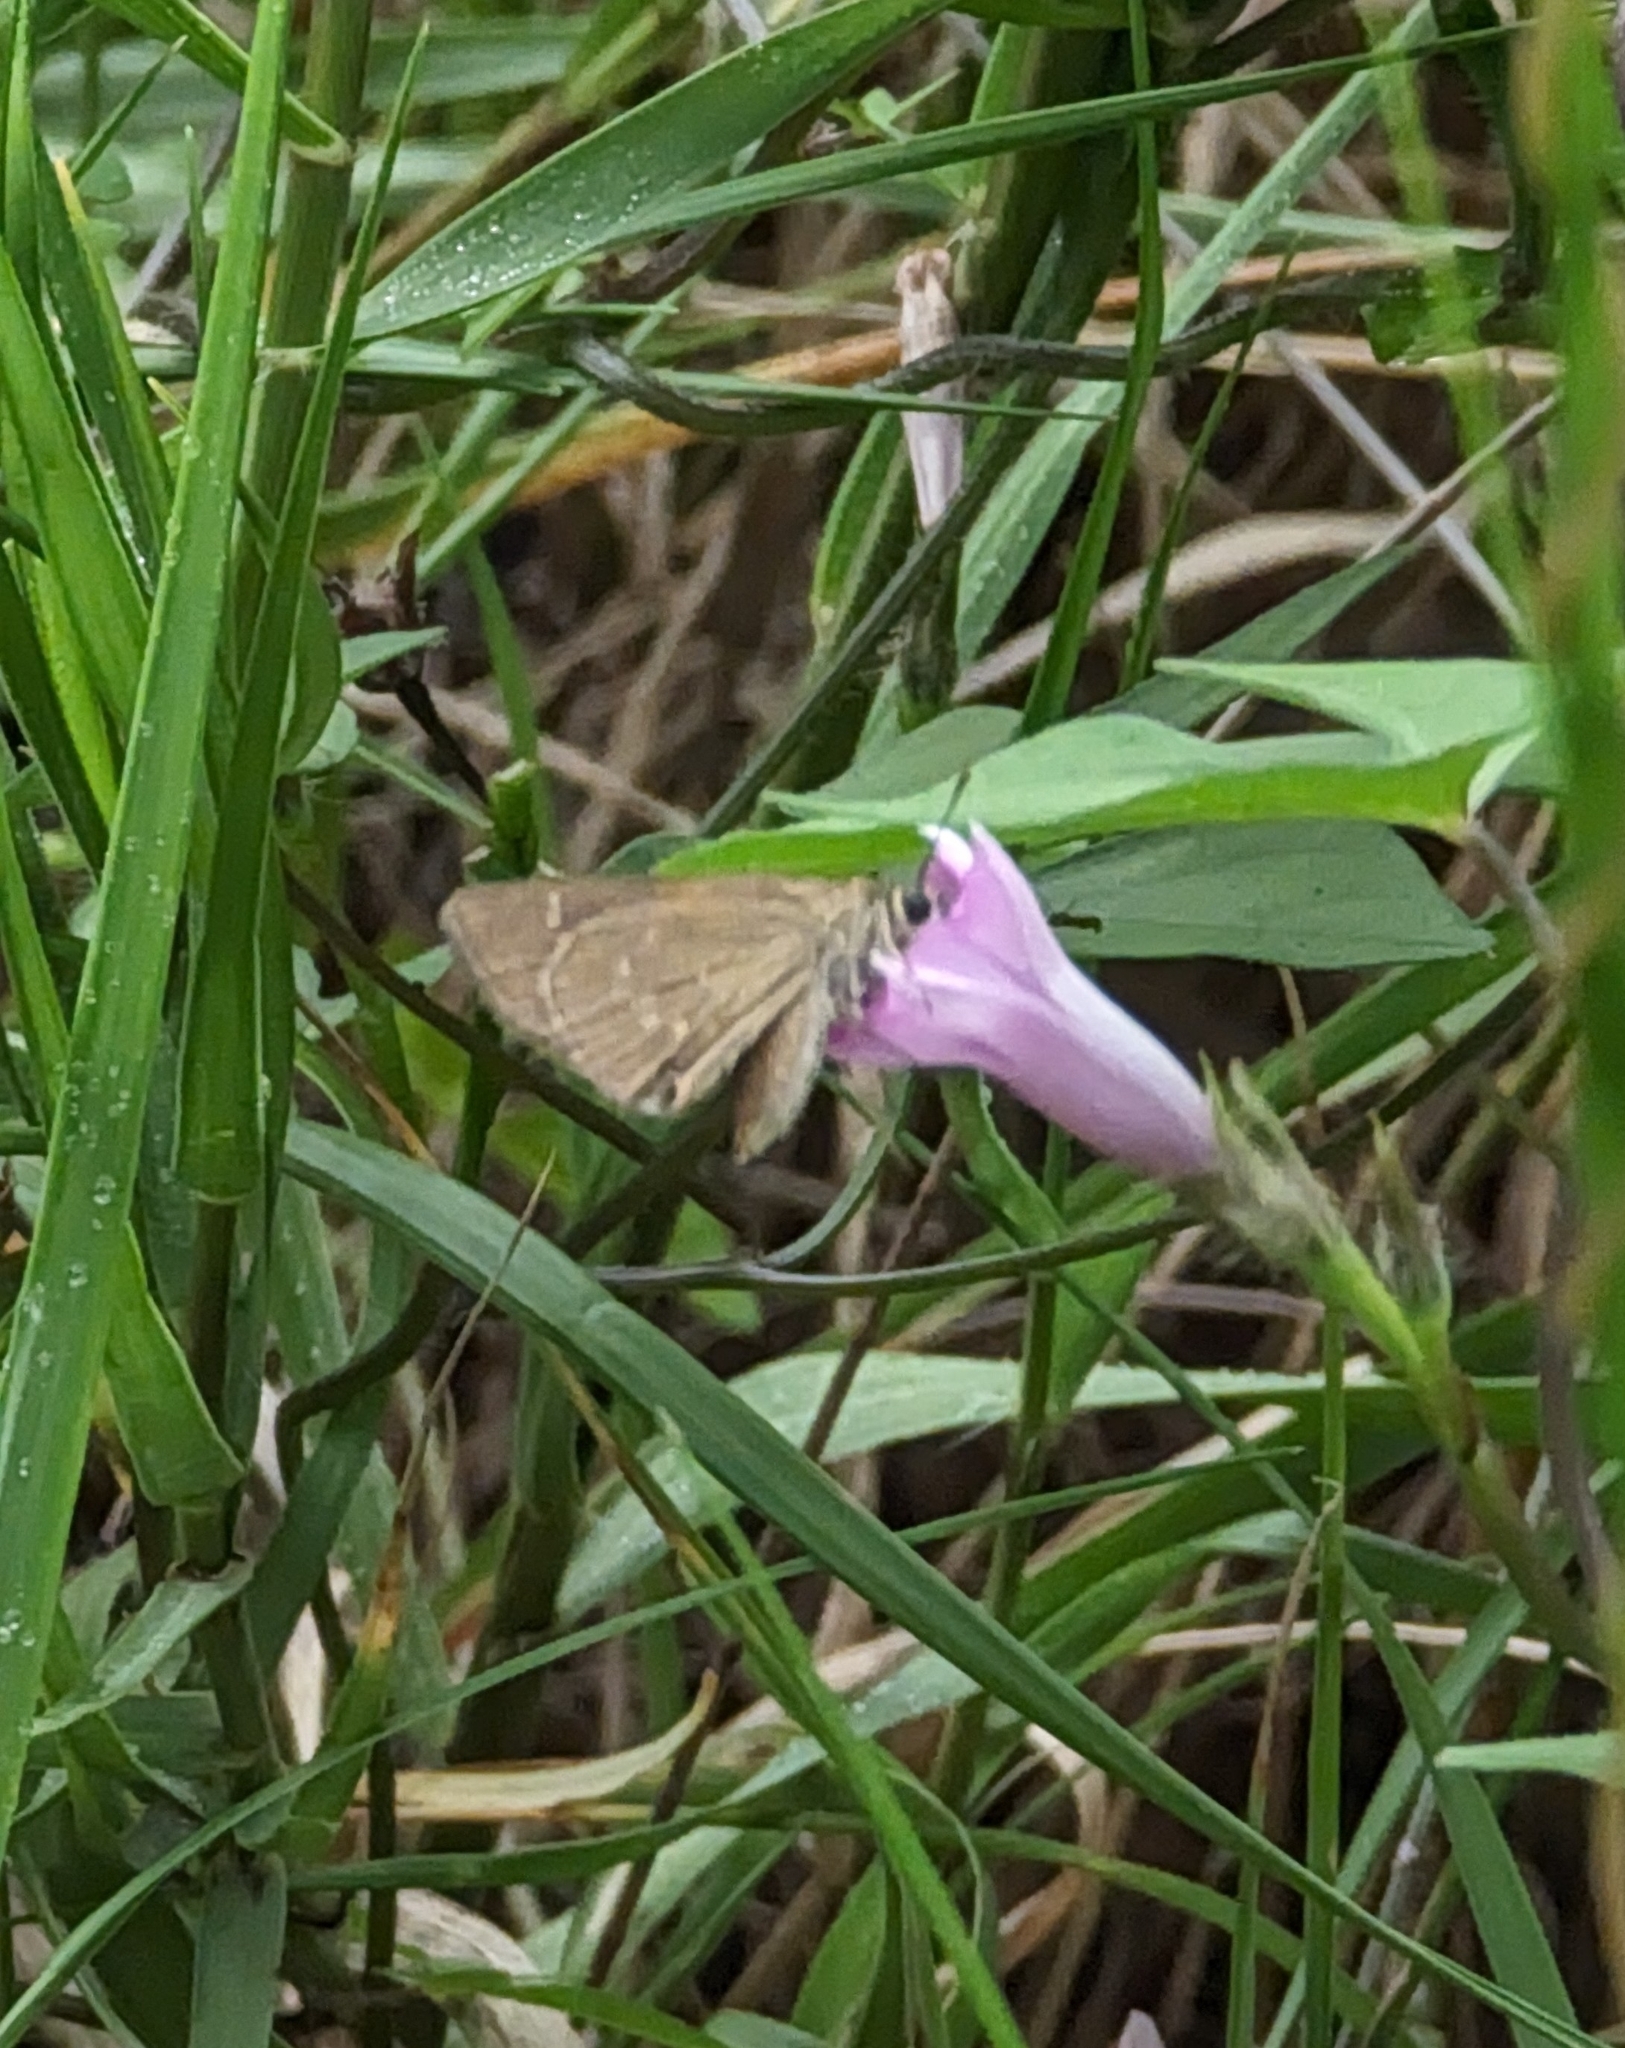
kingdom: Animalia
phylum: Arthropoda
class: Insecta
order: Lepidoptera
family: Hesperiidae
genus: Cymaenes
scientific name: Cymaenes tripunctus
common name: Dingy dotted skipper
